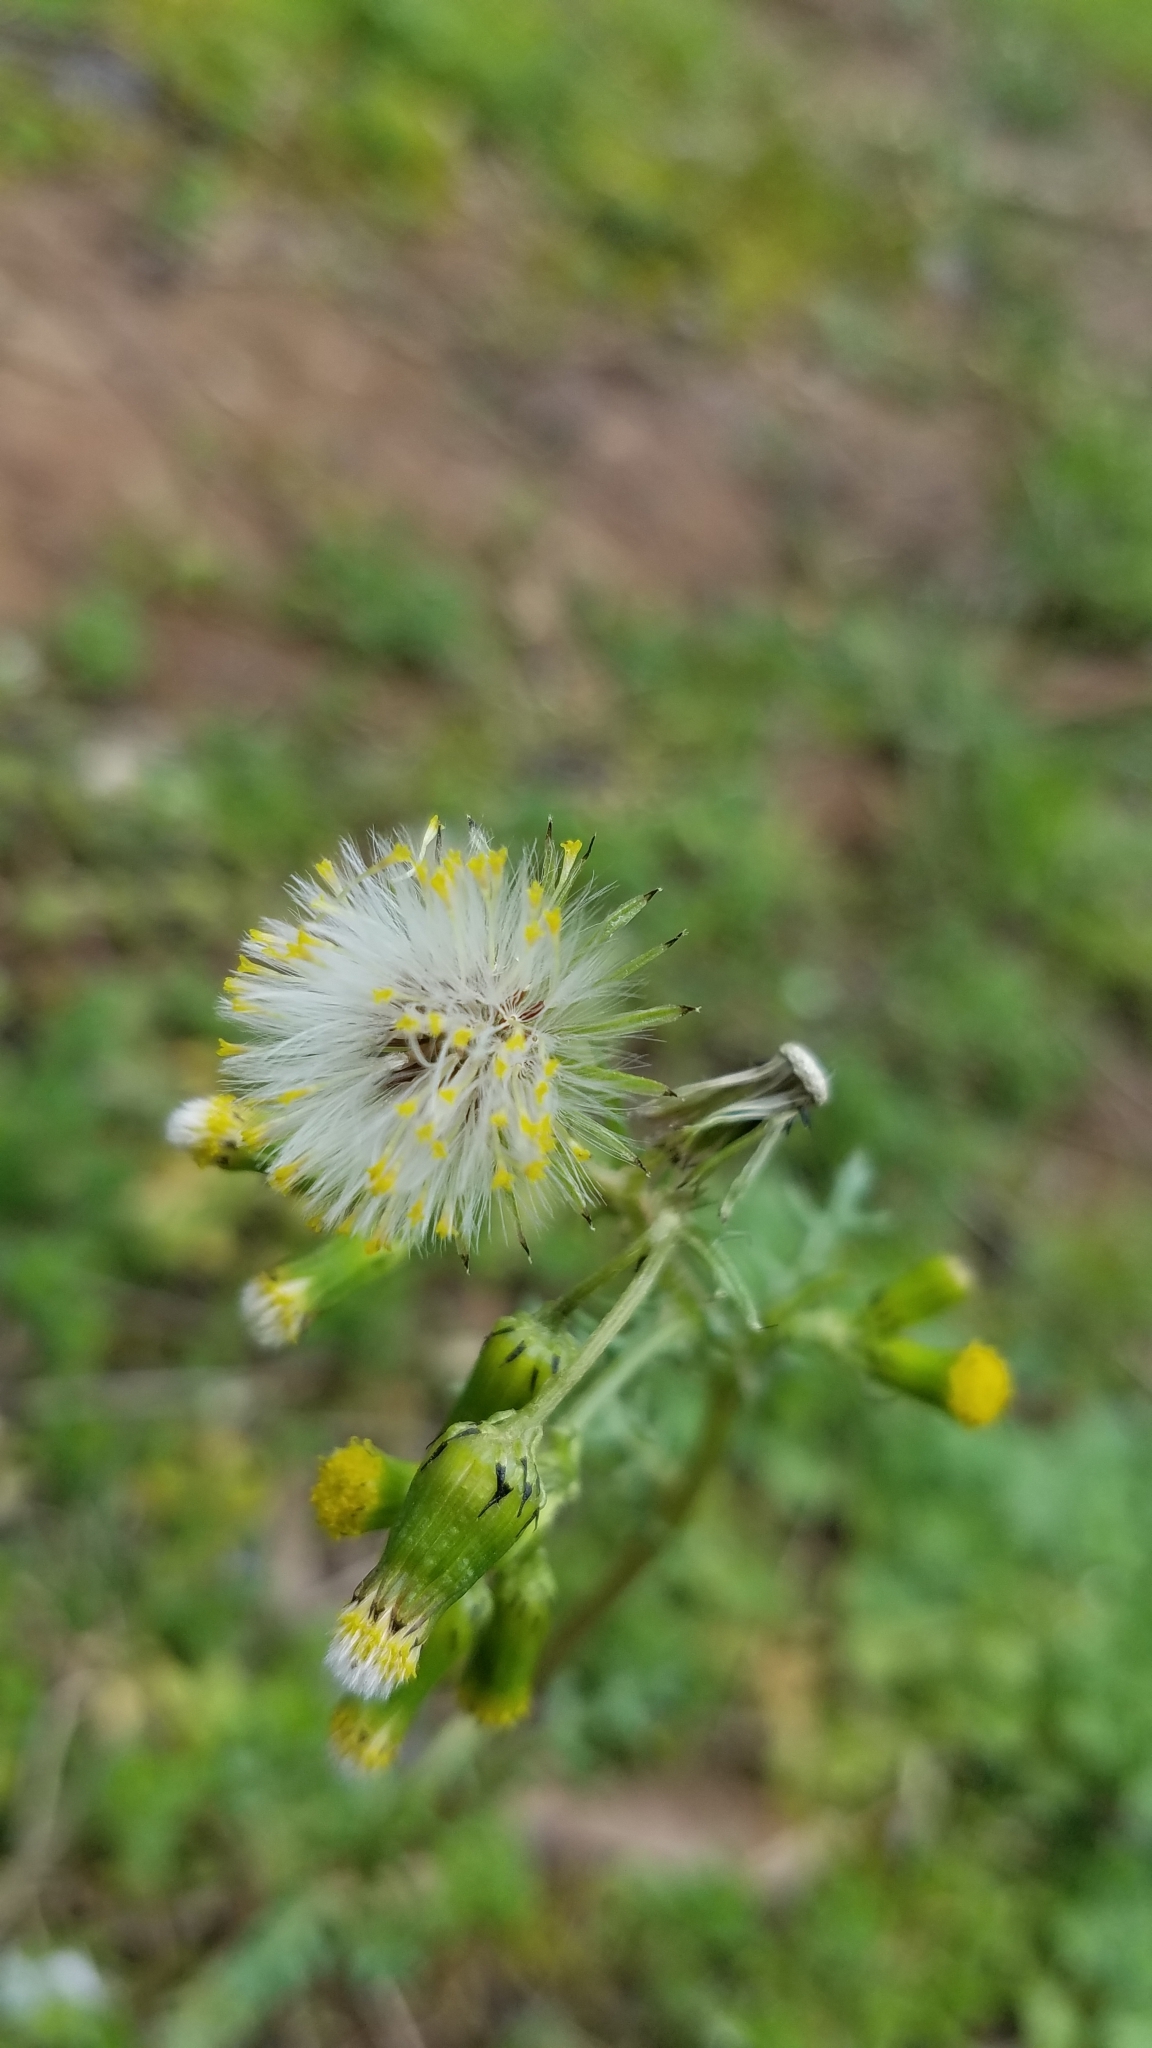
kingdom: Plantae
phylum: Tracheophyta
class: Magnoliopsida
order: Asterales
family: Asteraceae
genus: Senecio
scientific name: Senecio vulgaris
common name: Old-man-in-the-spring
